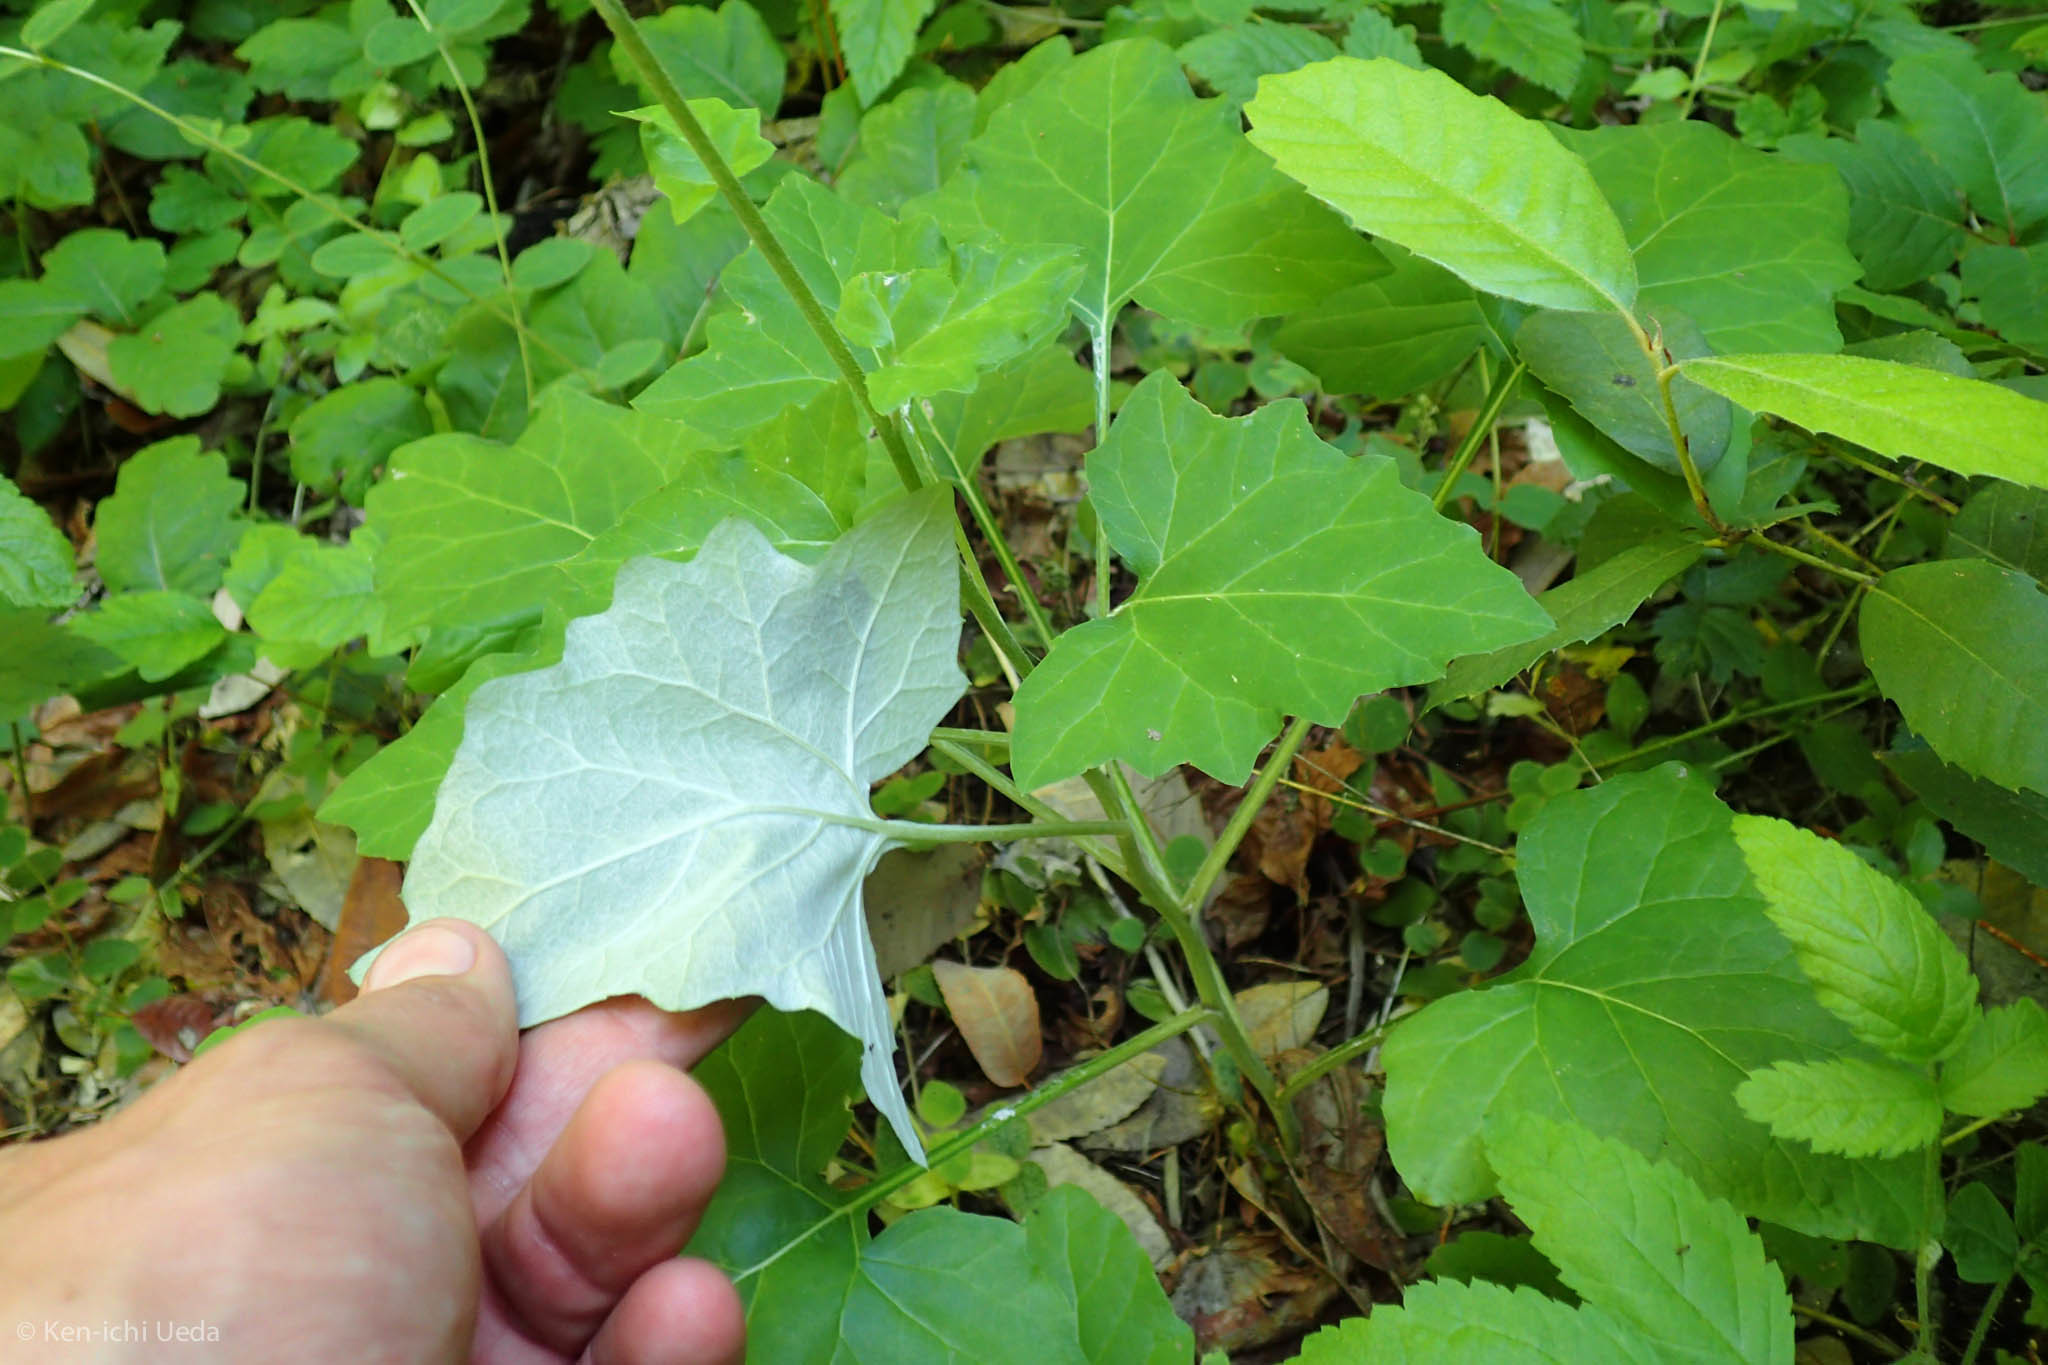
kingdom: Plantae
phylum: Tracheophyta
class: Magnoliopsida
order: Asterales
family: Asteraceae
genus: Adenocaulon
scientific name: Adenocaulon bicolor
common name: Trailplant
